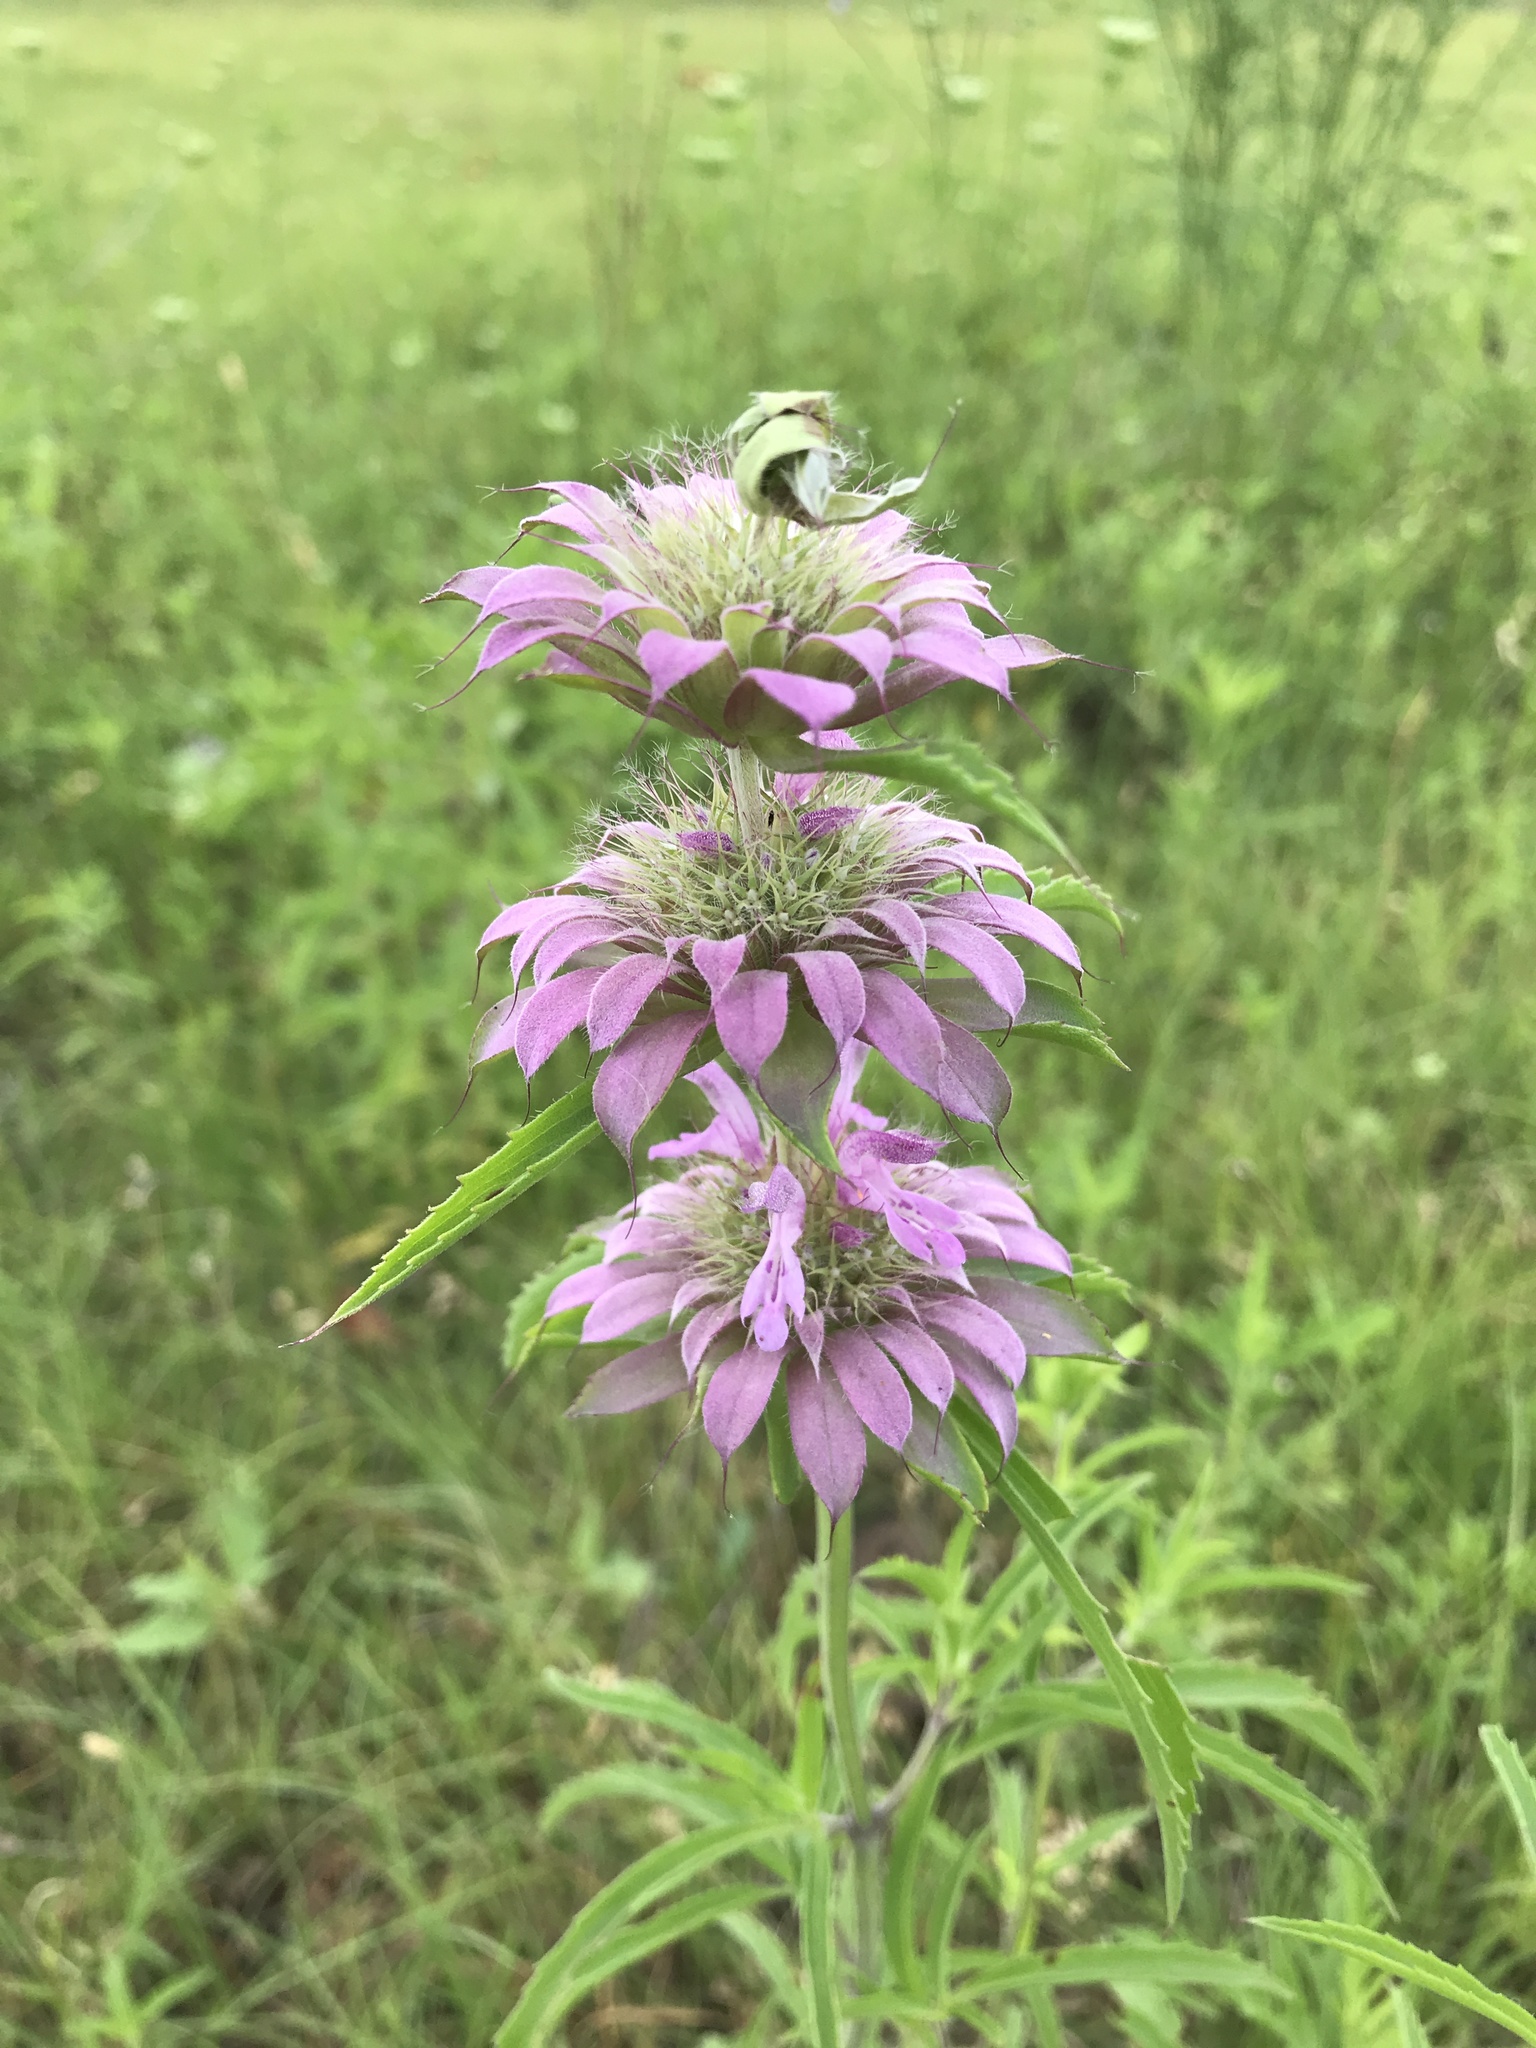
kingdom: Plantae
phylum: Tracheophyta
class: Magnoliopsida
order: Lamiales
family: Lamiaceae
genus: Monarda
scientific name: Monarda citriodora
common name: Lemon beebalm
